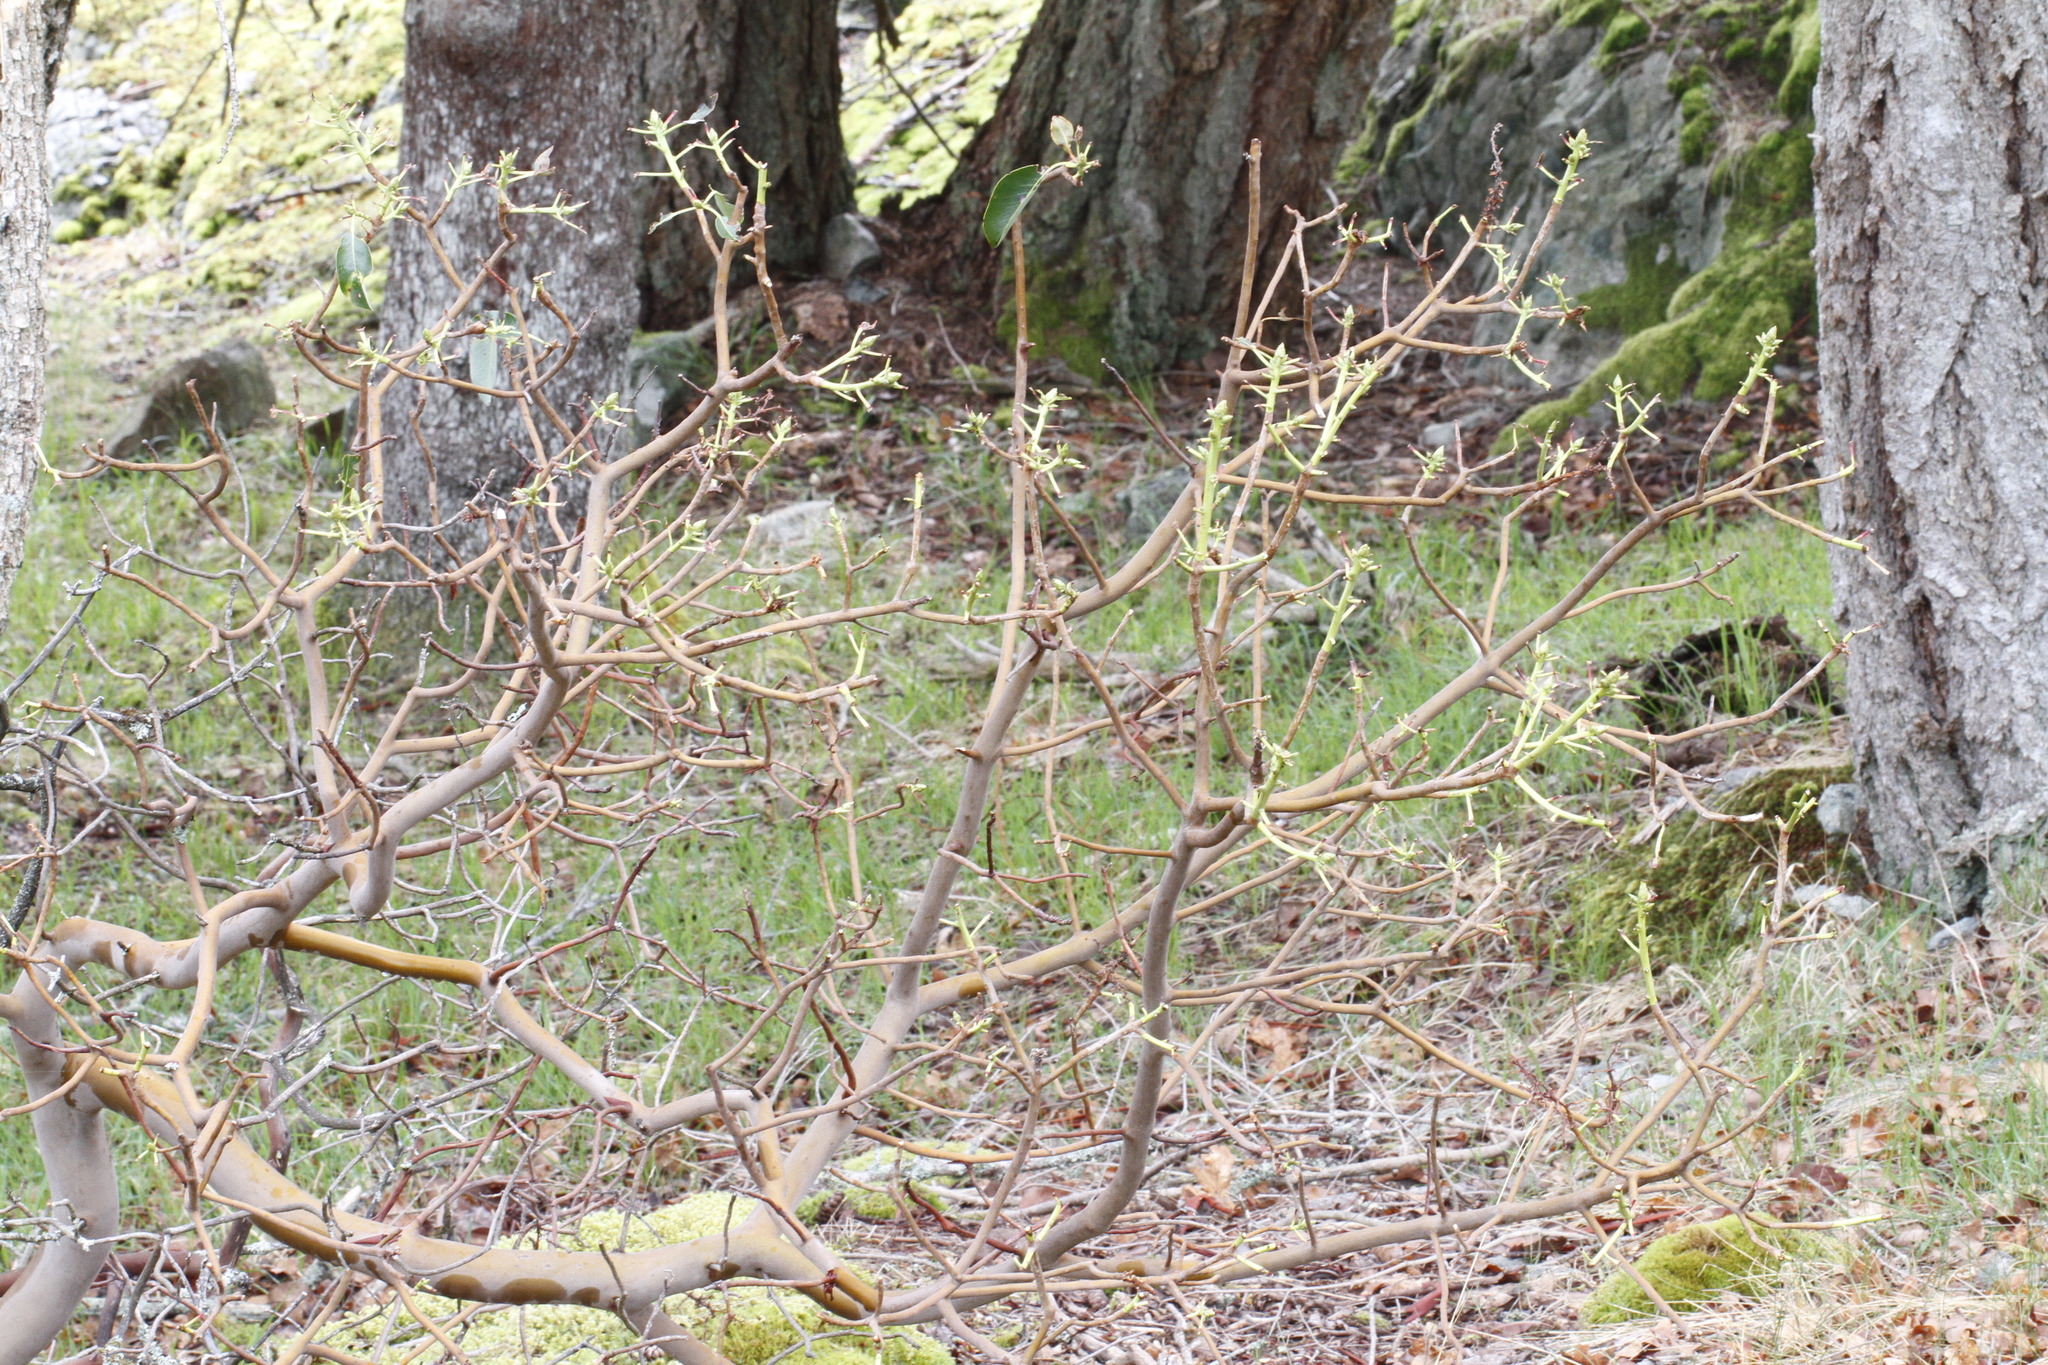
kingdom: Plantae
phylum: Tracheophyta
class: Magnoliopsida
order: Ericales
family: Ericaceae
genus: Arbutus
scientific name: Arbutus menziesii
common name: Pacific madrone
